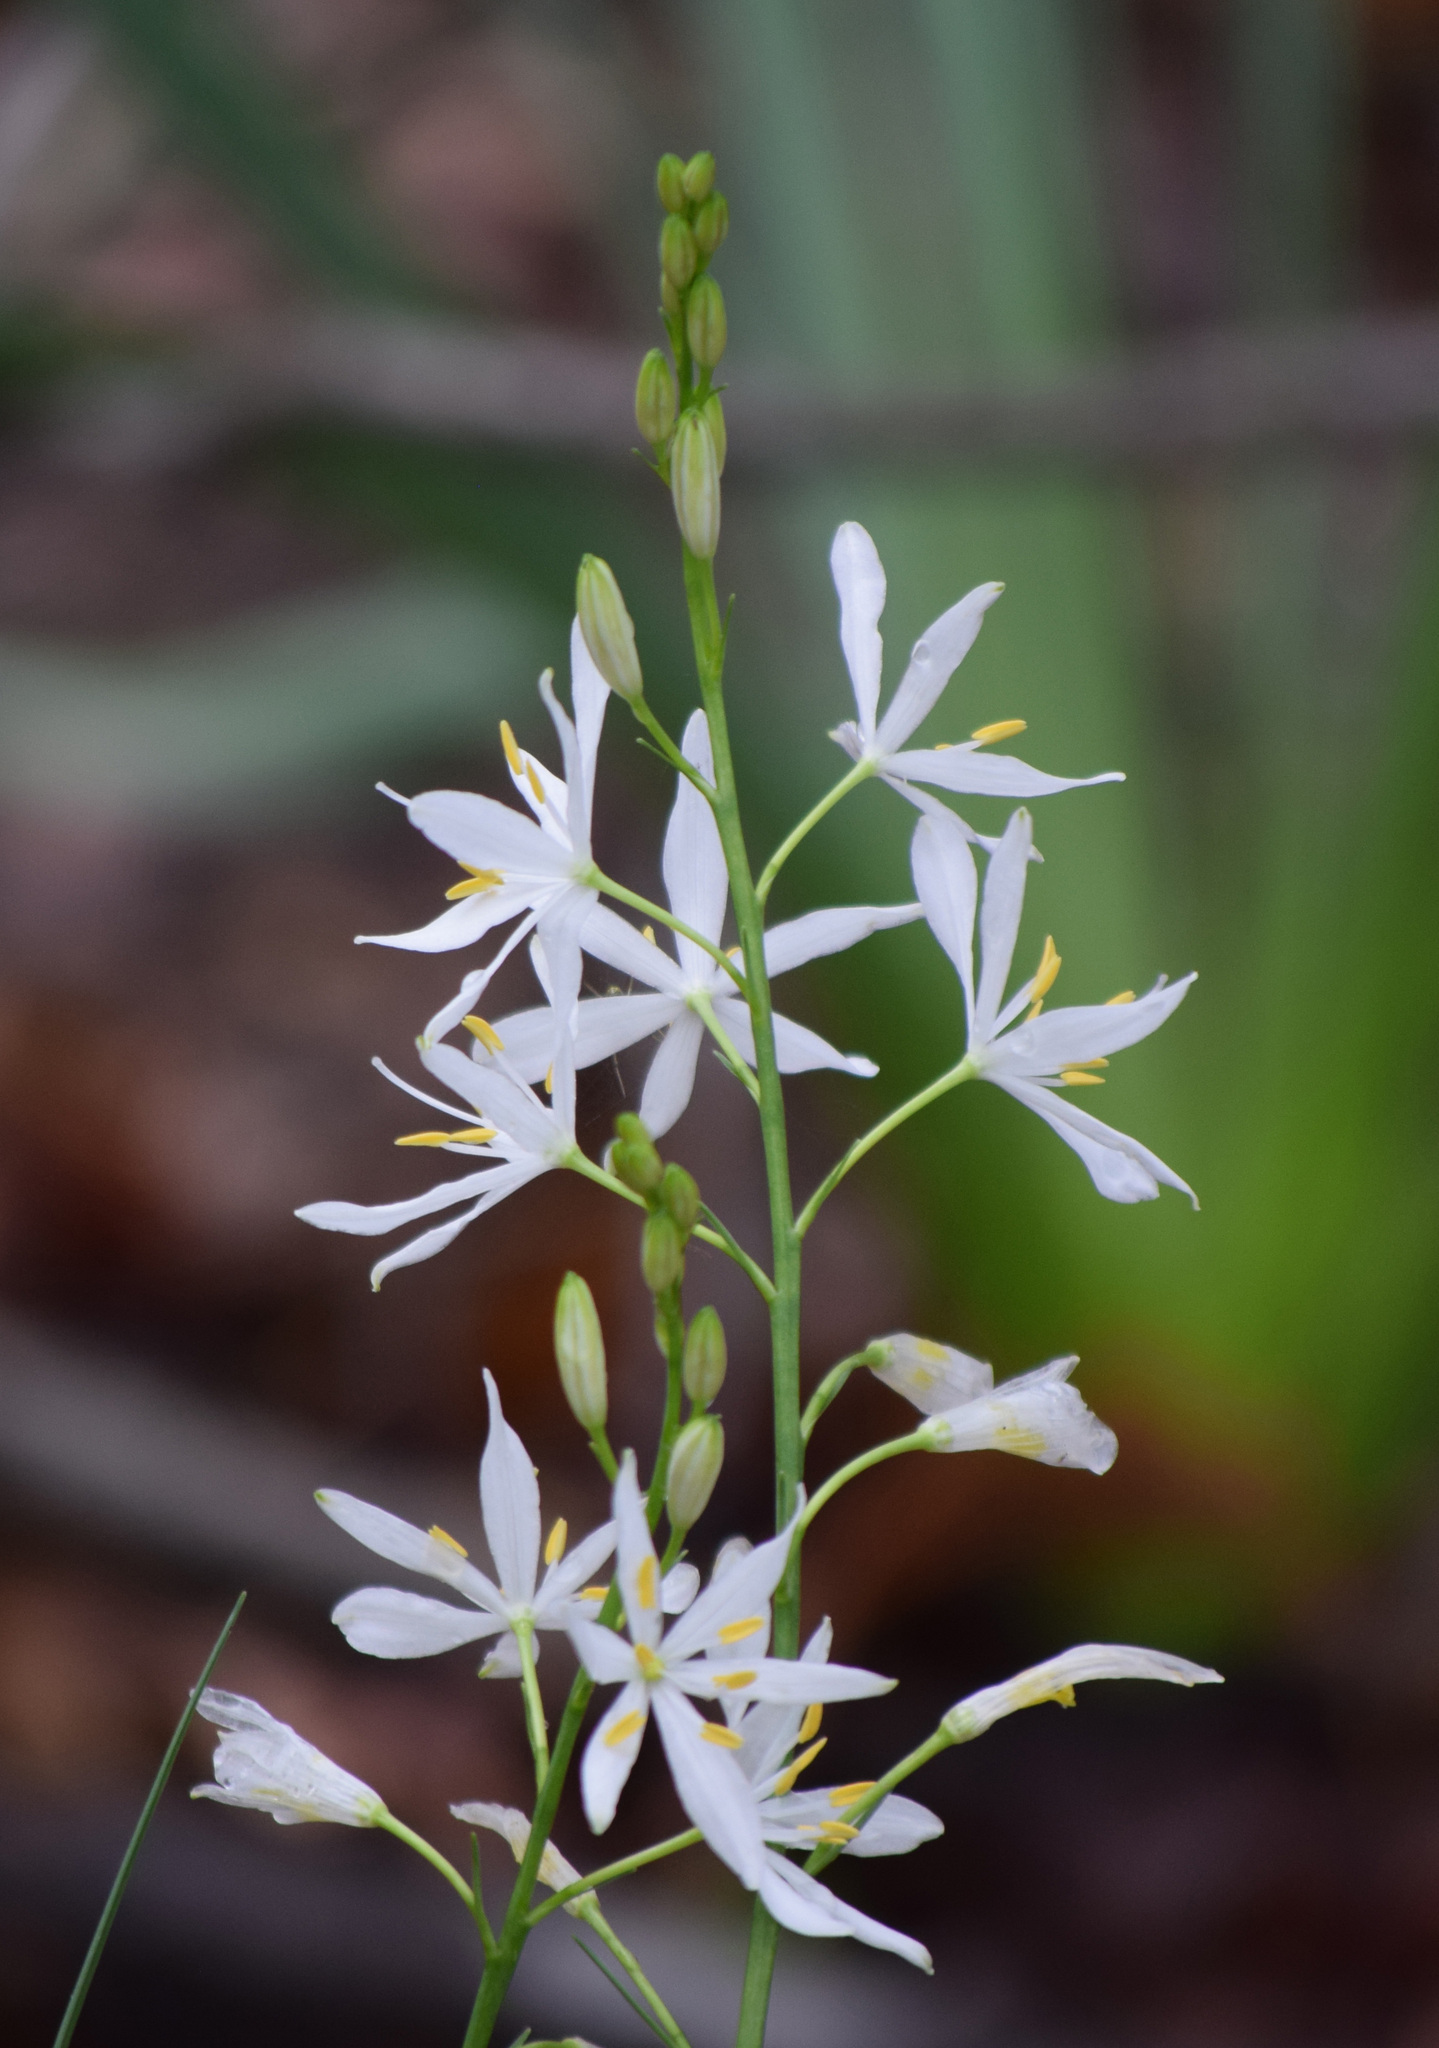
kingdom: Plantae
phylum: Tracheophyta
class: Liliopsida
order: Asparagales
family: Asparagaceae
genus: Anthericum
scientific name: Anthericum liliago
